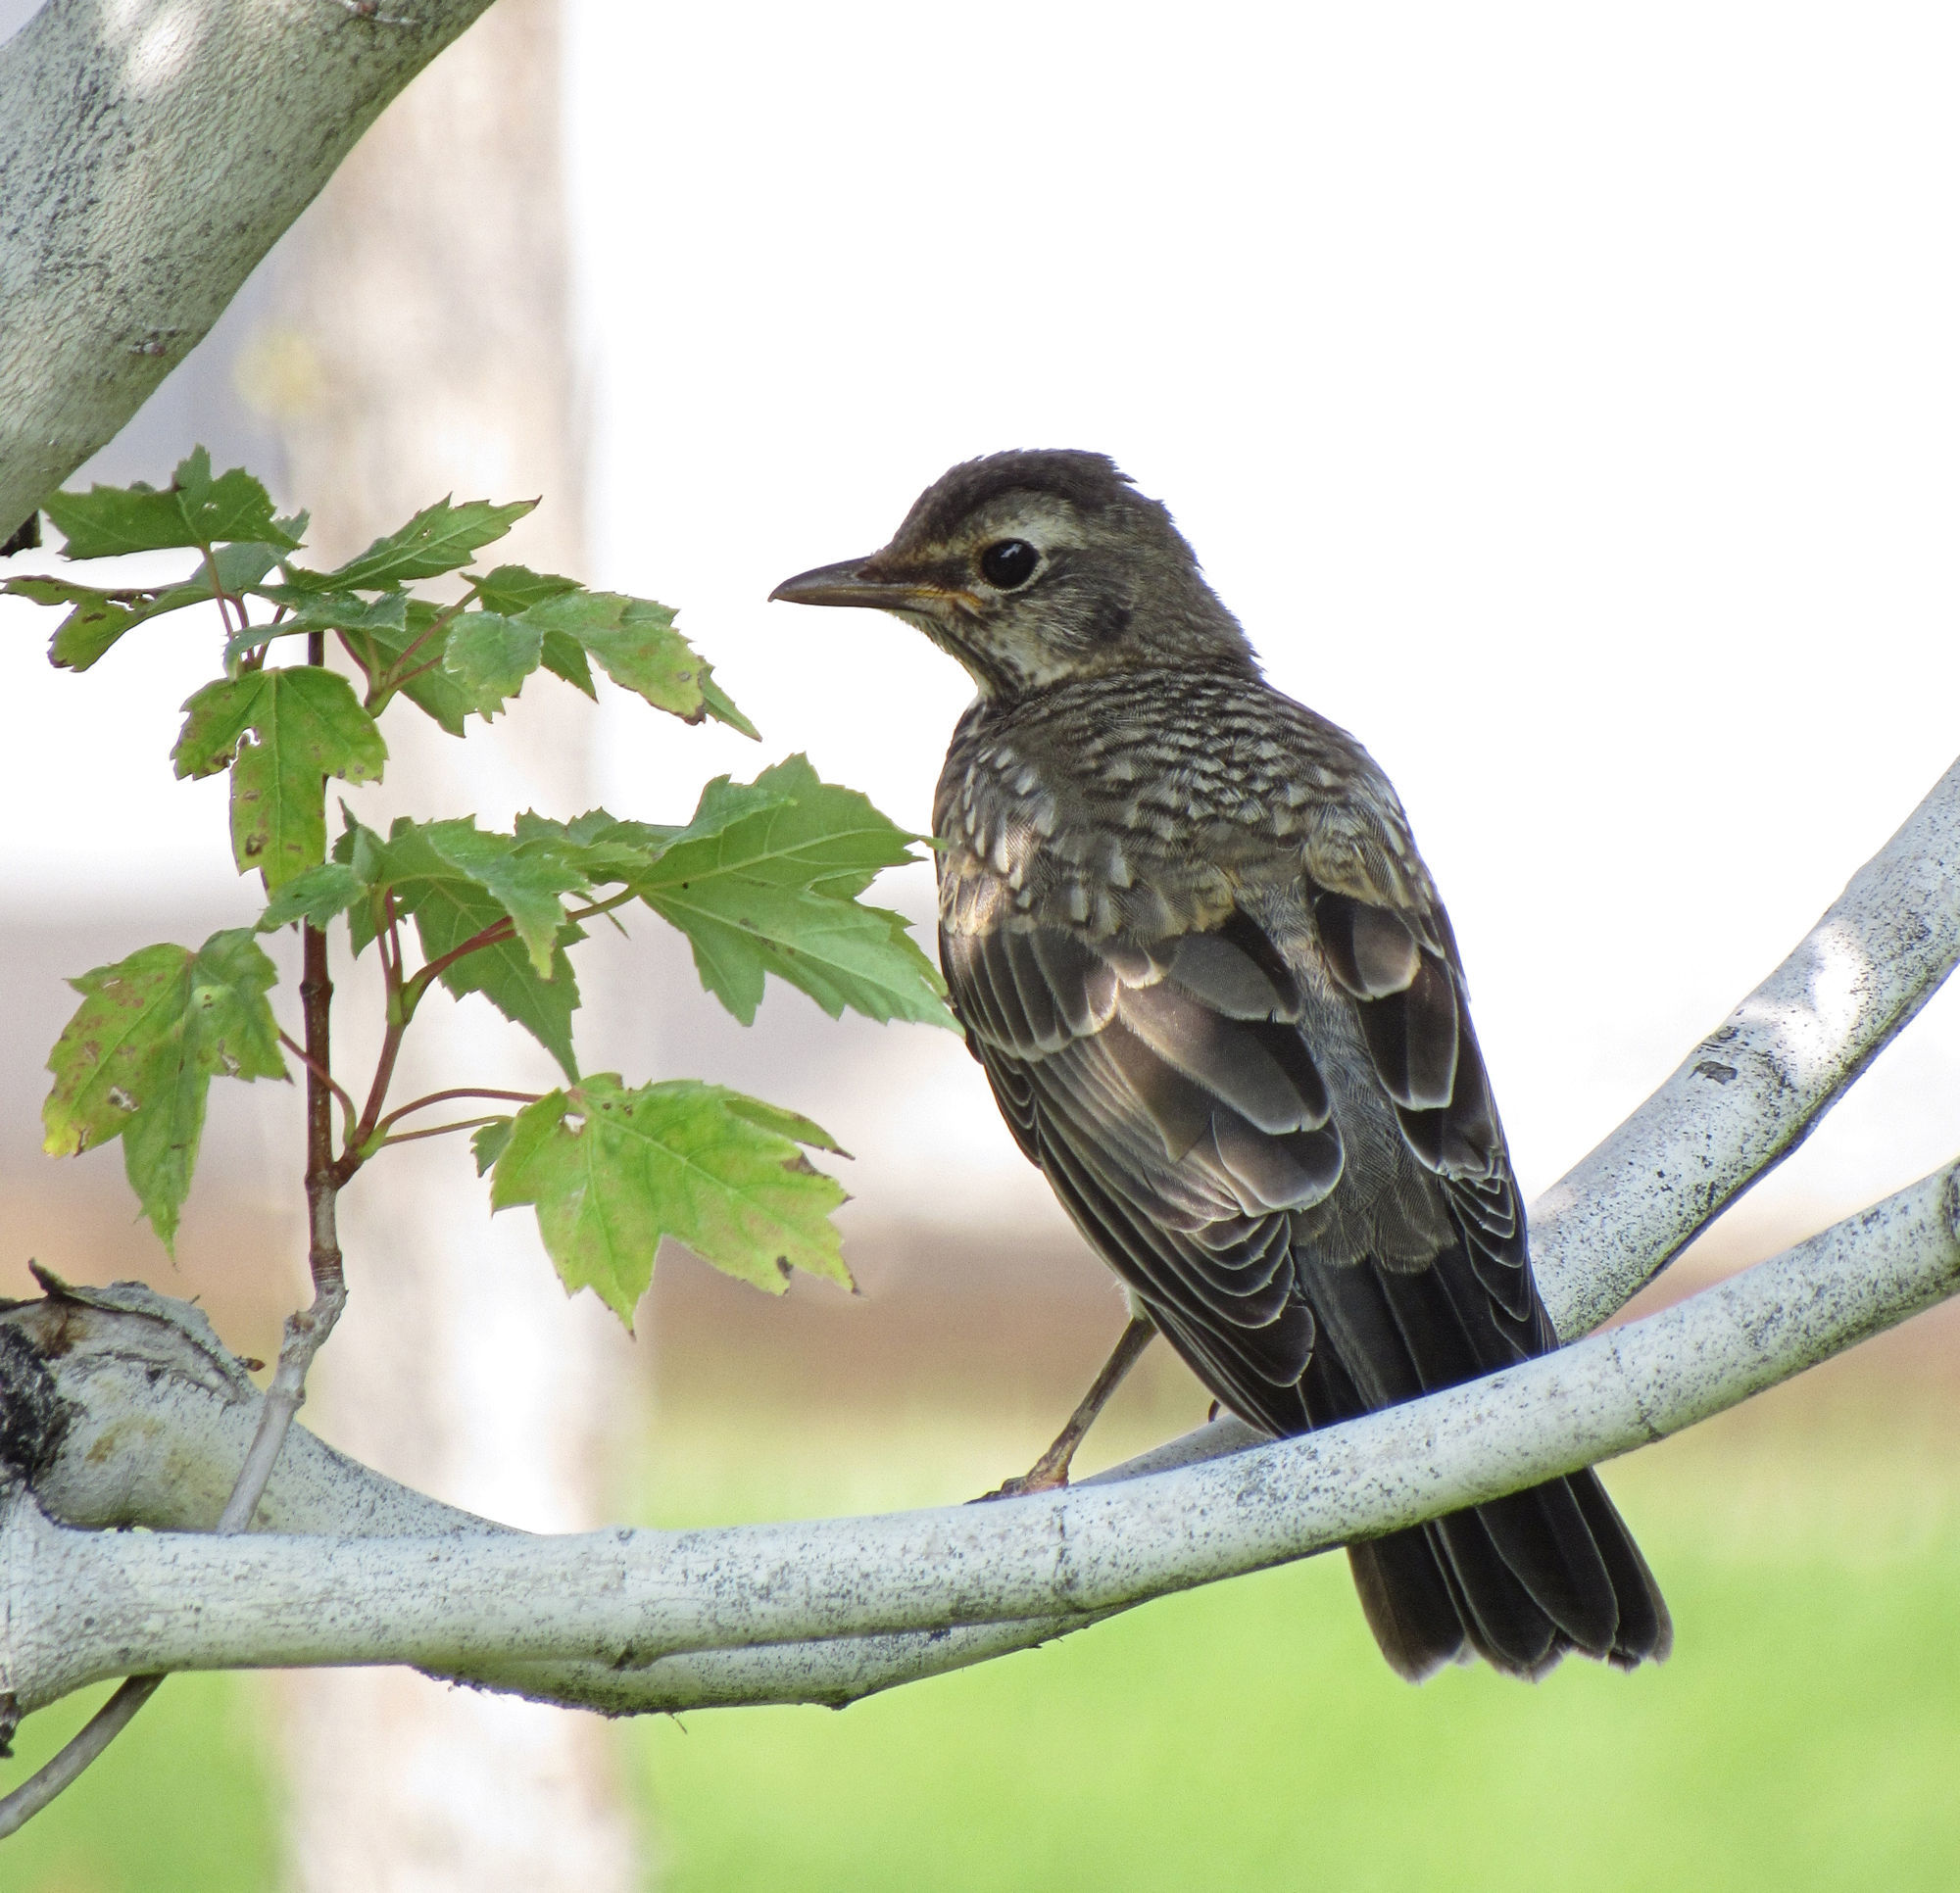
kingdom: Animalia
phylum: Chordata
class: Aves
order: Passeriformes
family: Turdidae
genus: Turdus
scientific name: Turdus migratorius
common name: American robin
